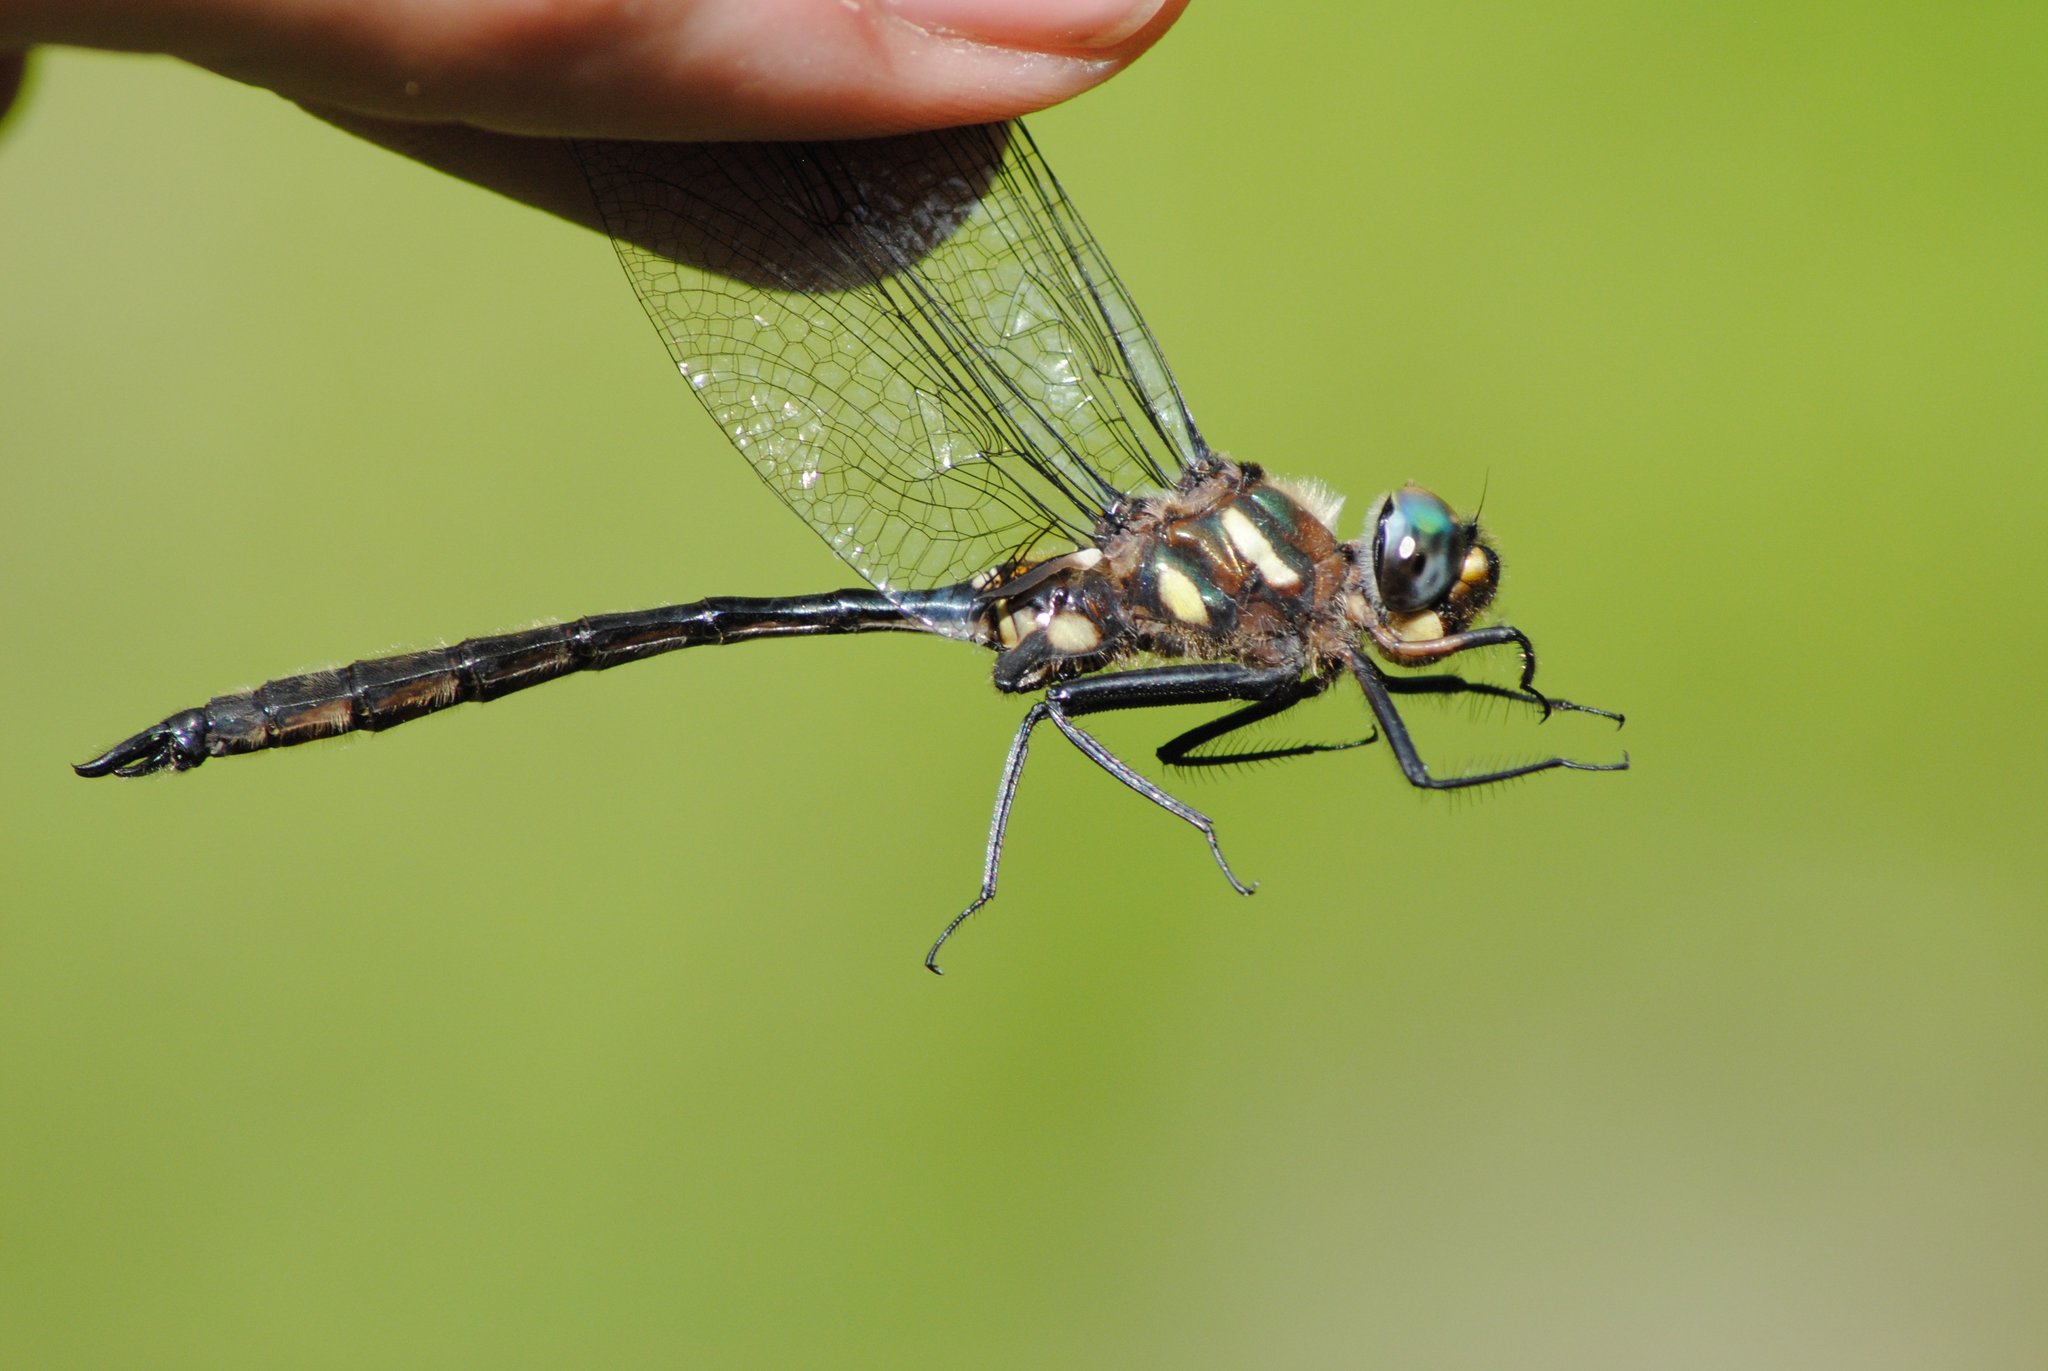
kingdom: Animalia
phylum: Arthropoda
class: Insecta
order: Odonata
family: Corduliidae
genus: Somatochlora
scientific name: Somatochlora elongata
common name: Ski-tipped emerald
